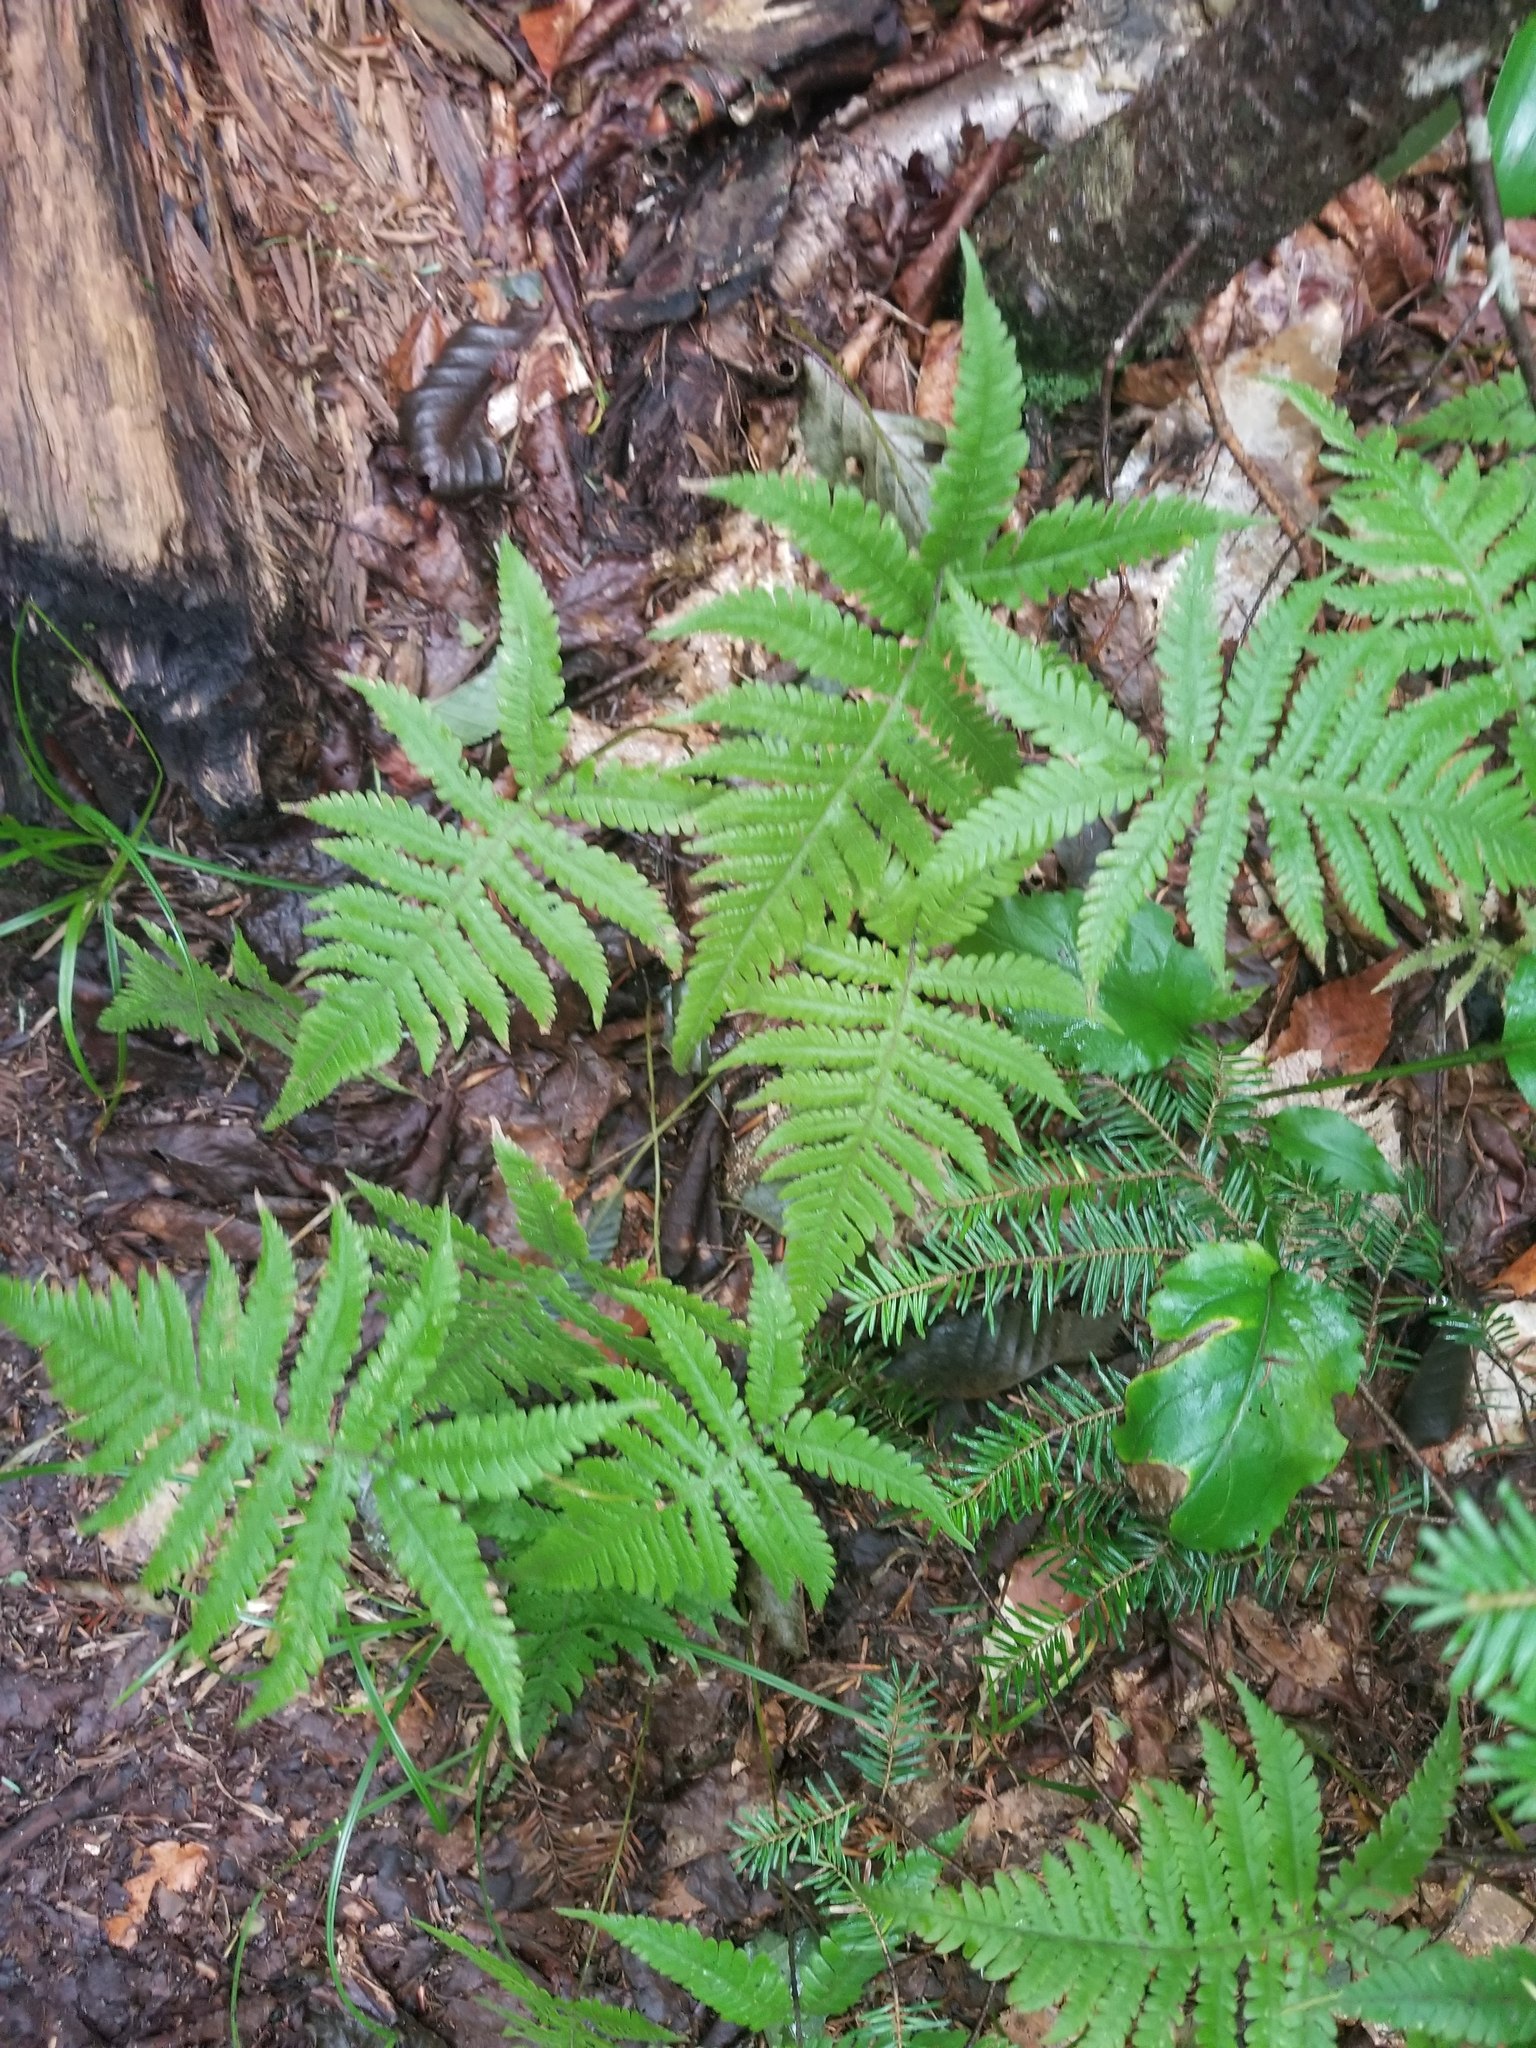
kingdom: Plantae
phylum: Tracheophyta
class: Polypodiopsida
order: Polypodiales
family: Thelypteridaceae
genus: Phegopteris
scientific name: Phegopteris connectilis
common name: Beech fern
